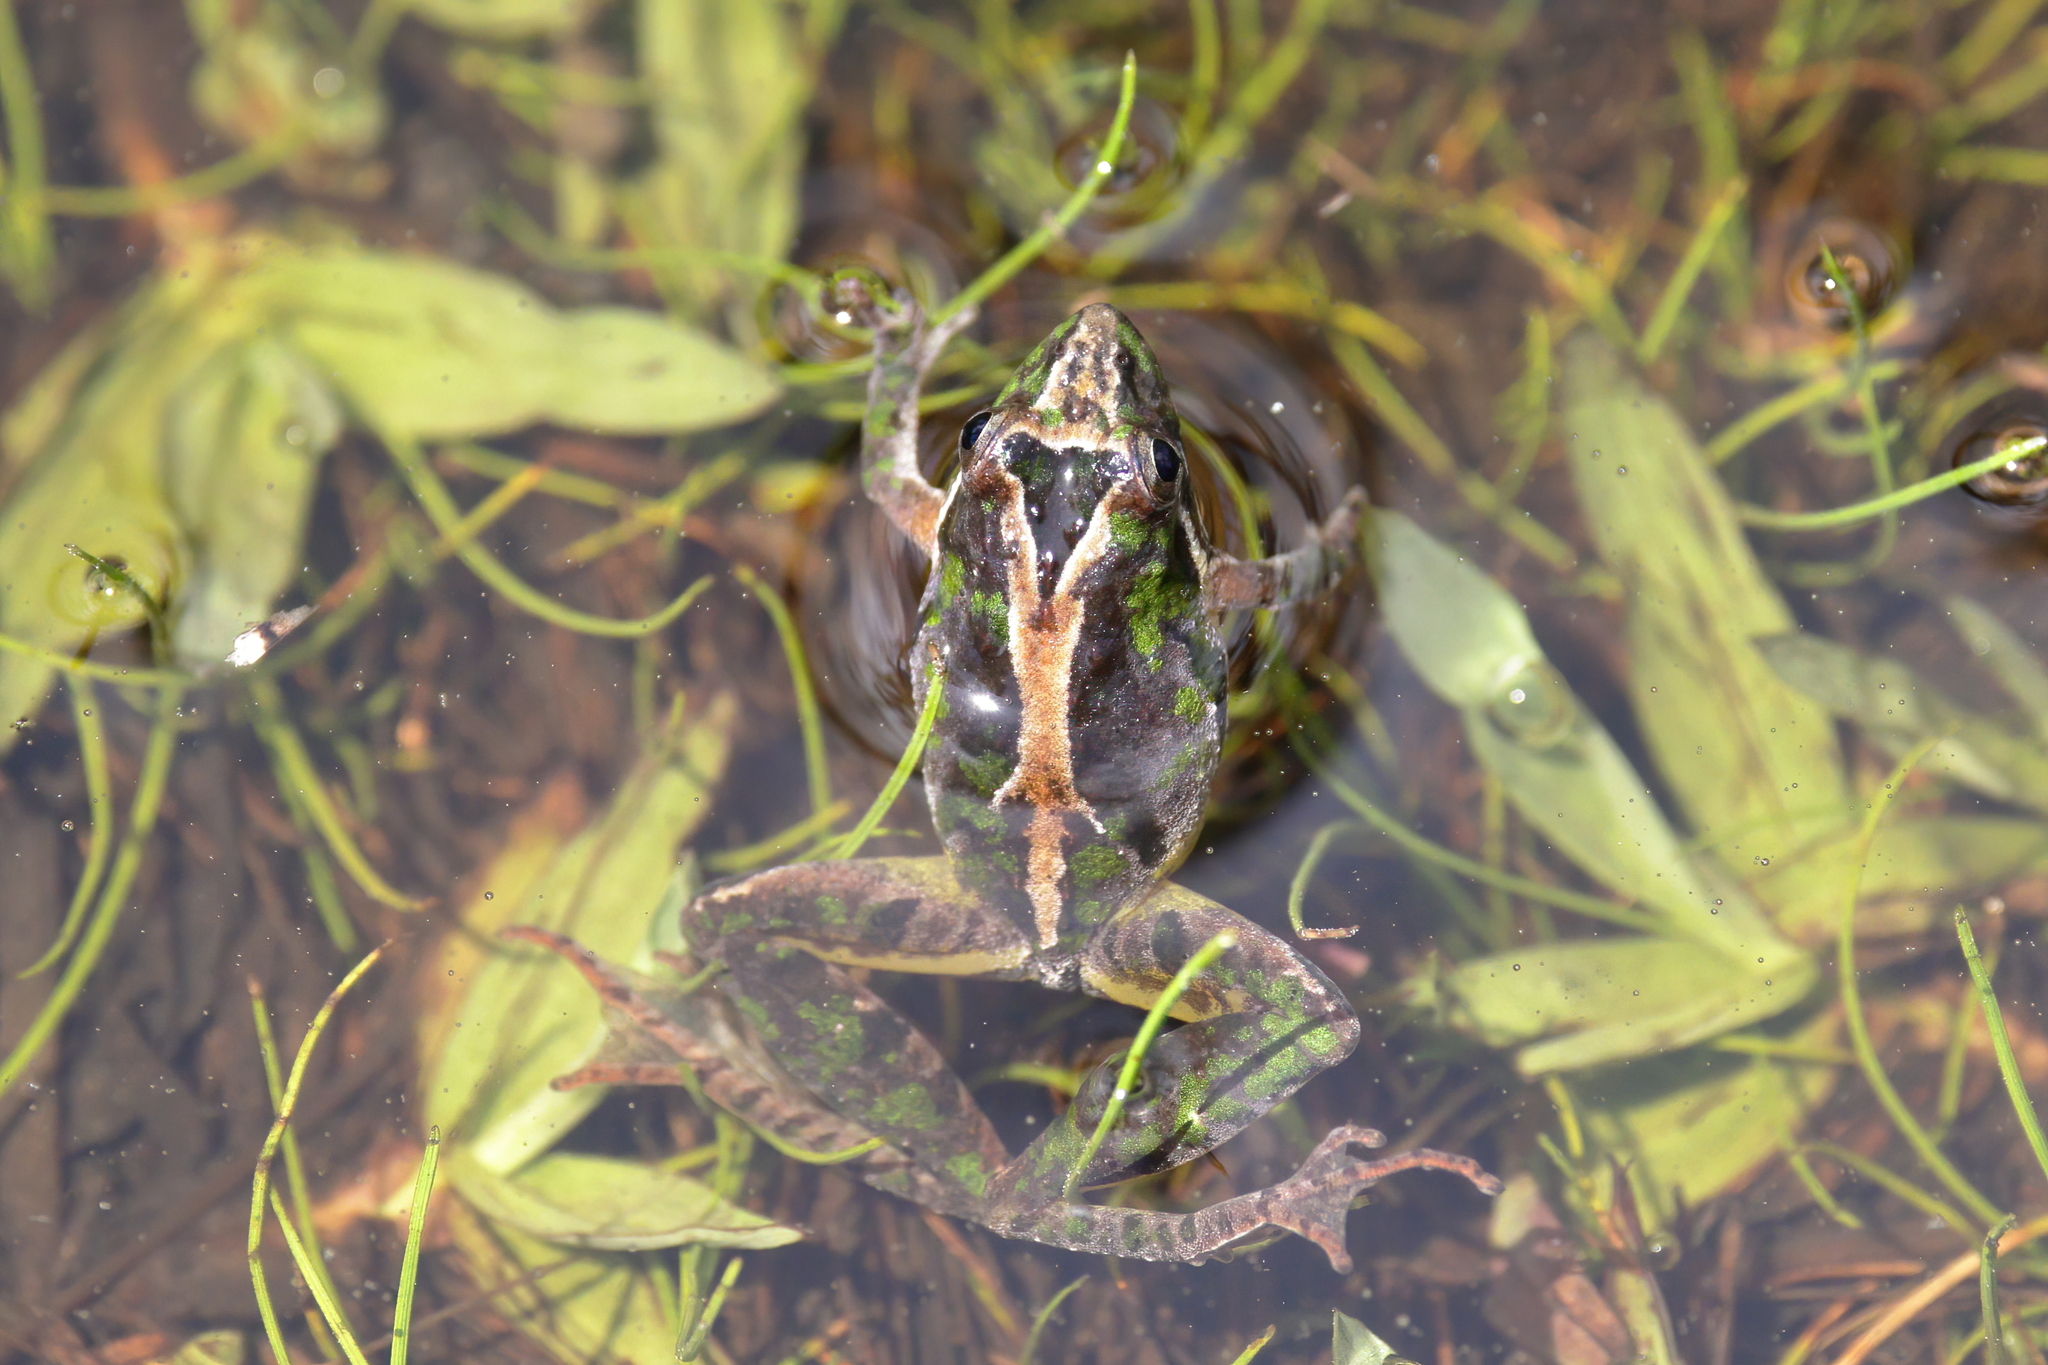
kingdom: Animalia
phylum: Chordata
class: Amphibia
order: Anura
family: Hylidae
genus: Acris
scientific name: Acris gryllus
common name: Southern cricket frog
